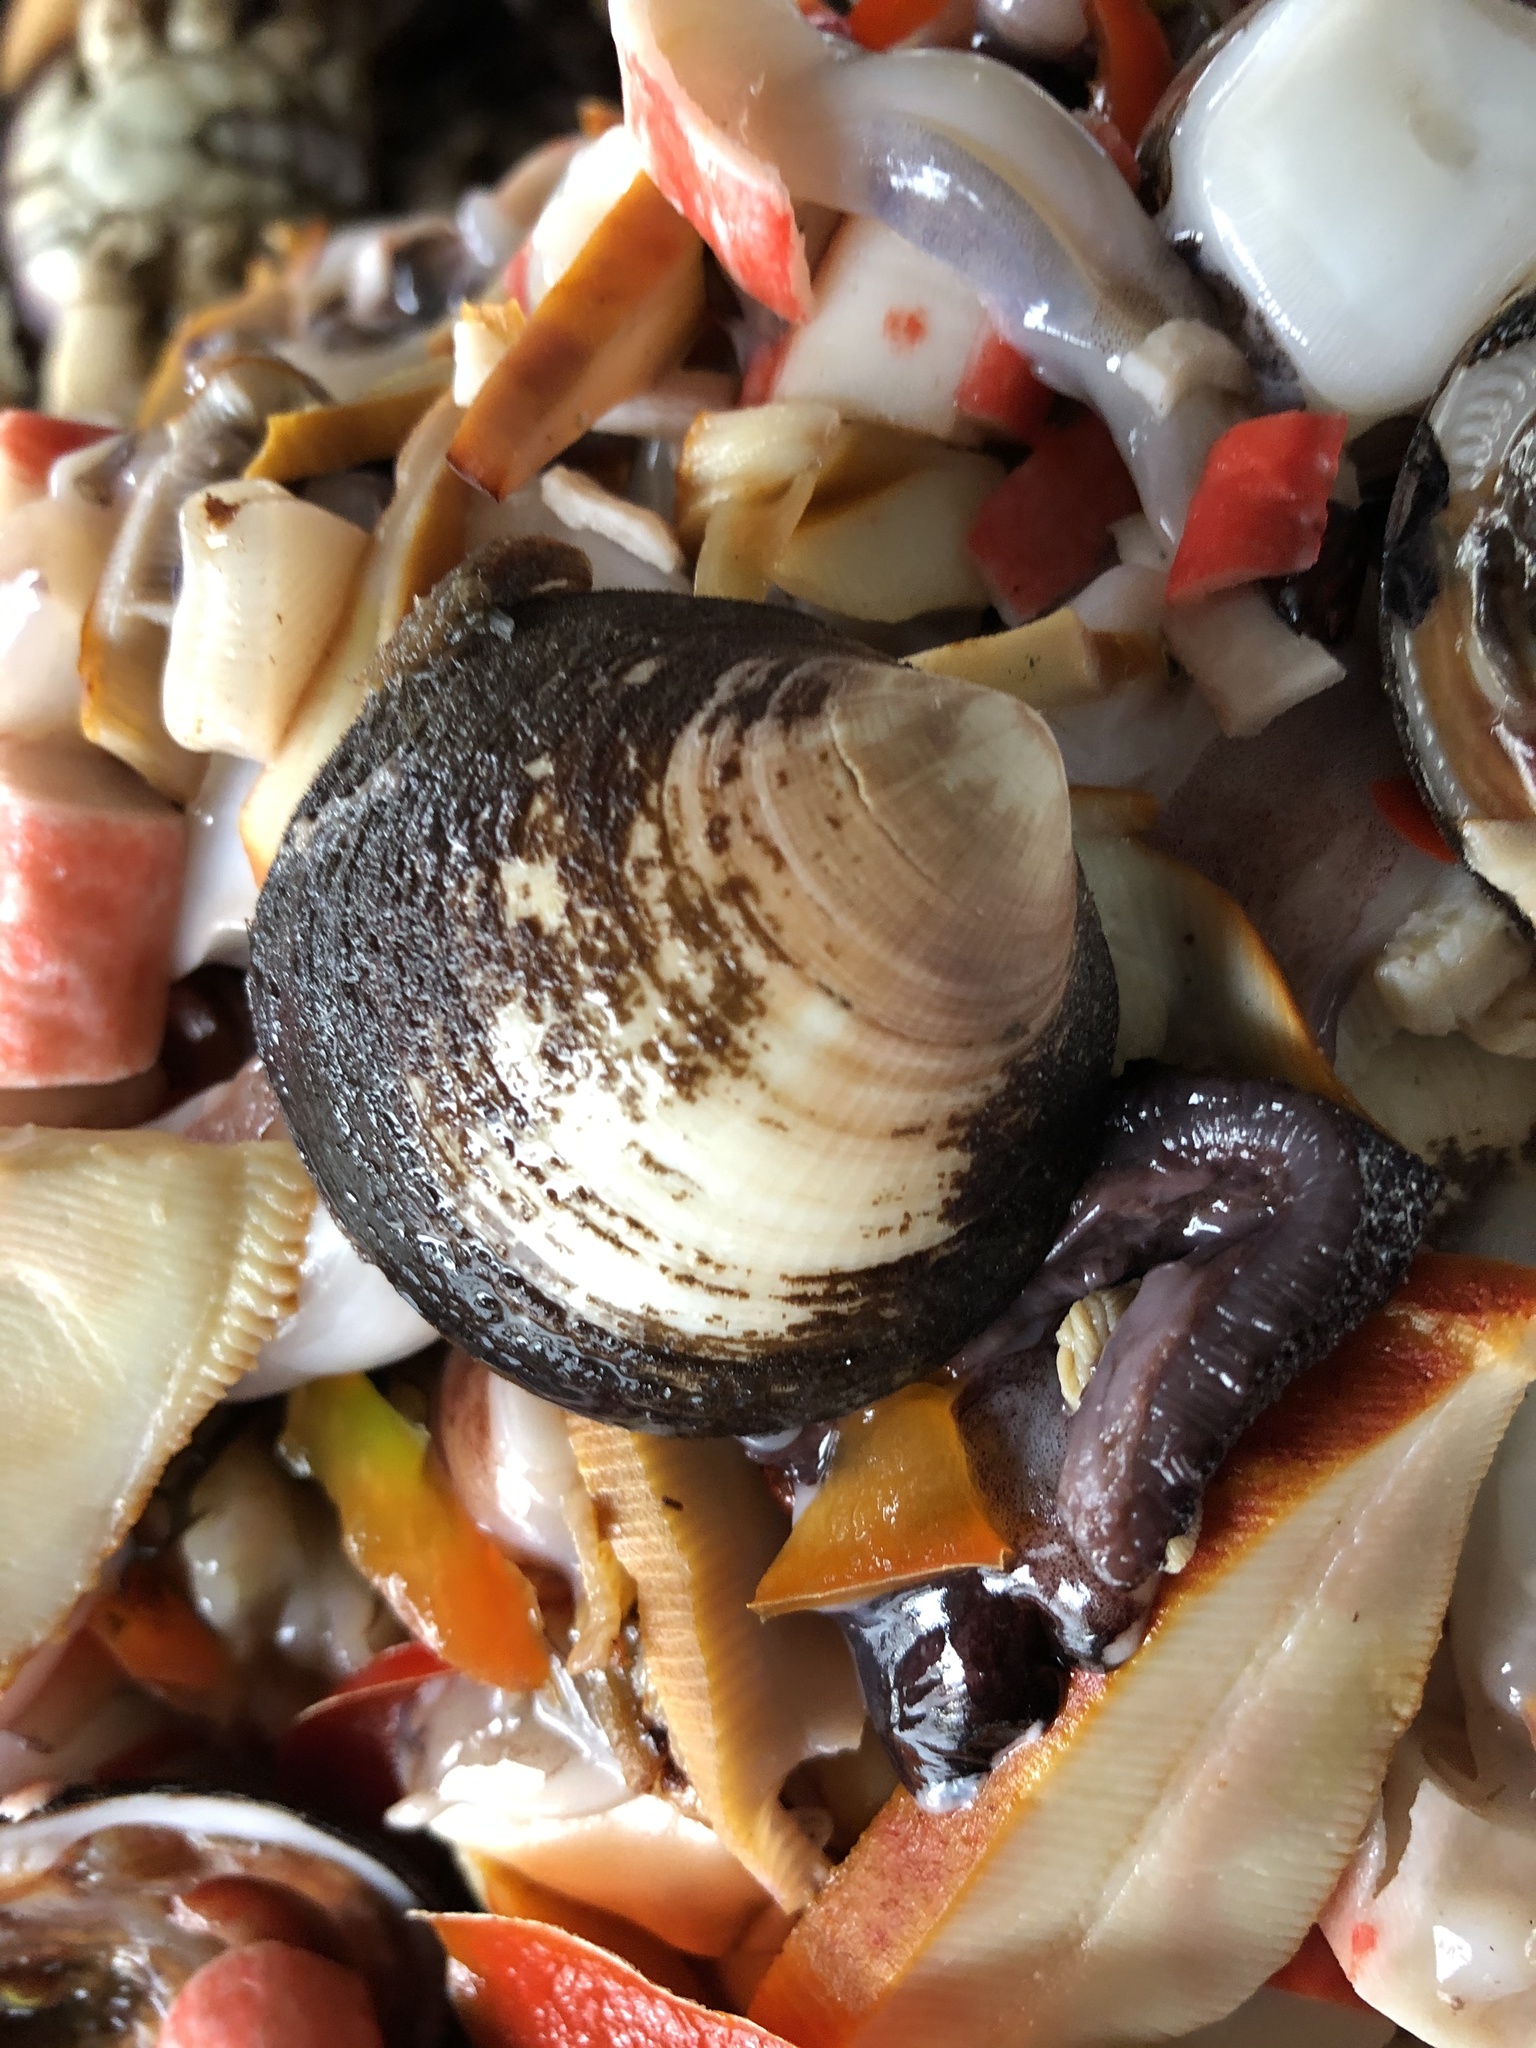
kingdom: Animalia
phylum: Mollusca
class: Bivalvia
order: Arcida
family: Glycymerididae
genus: Glycymeris
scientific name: Glycymeris ovata
